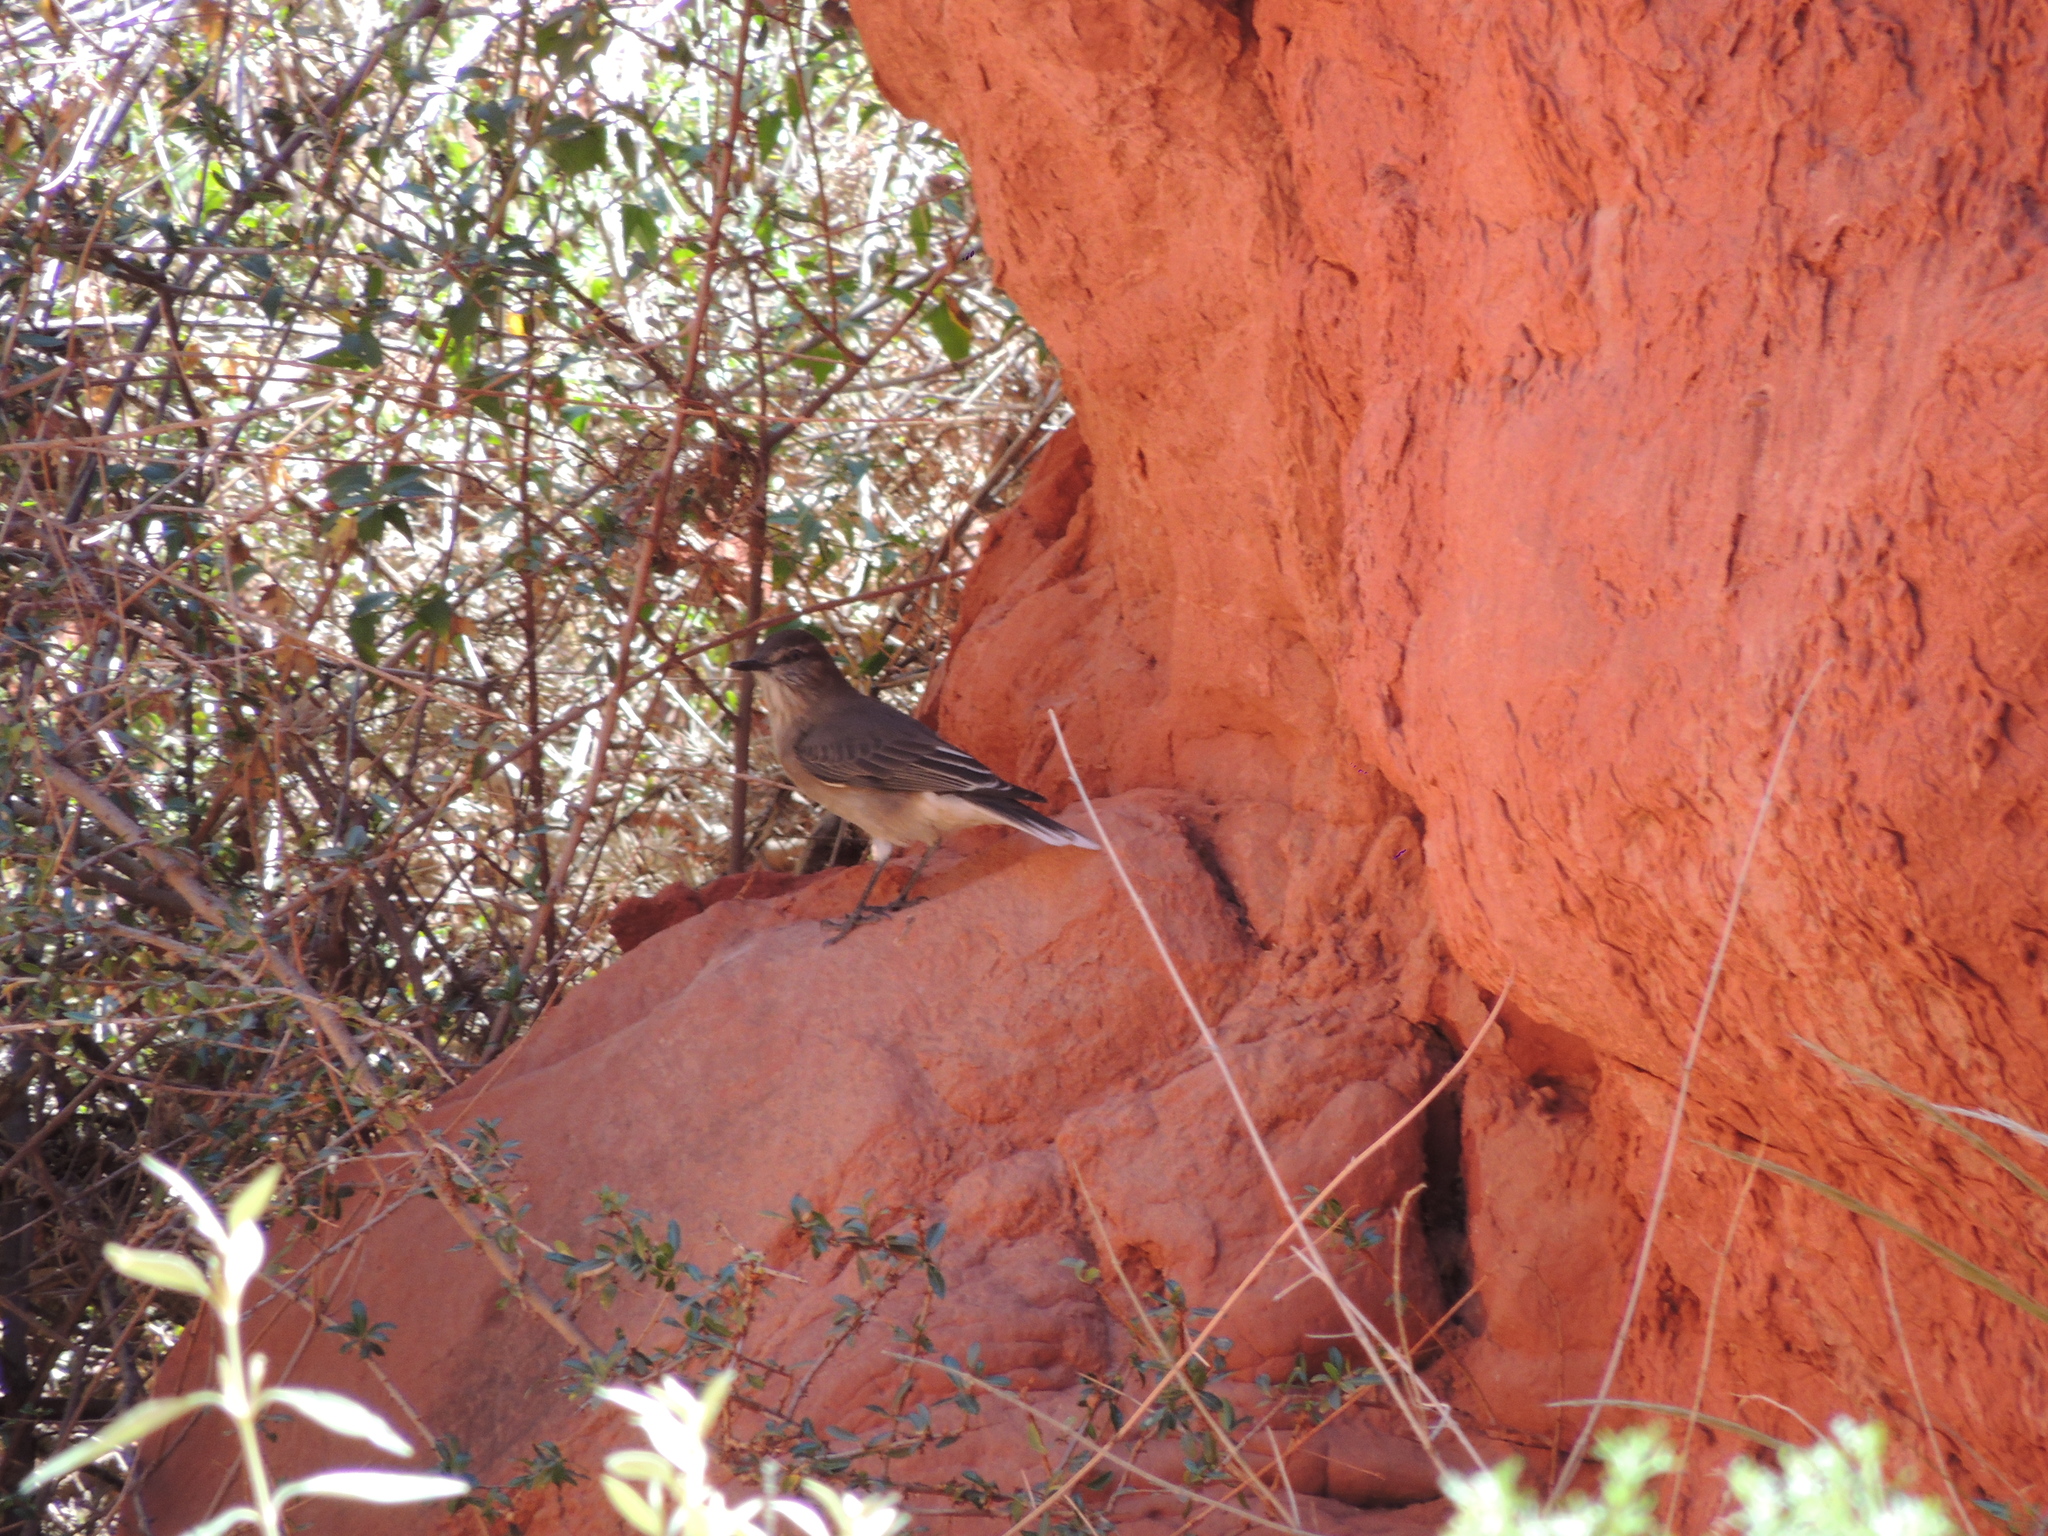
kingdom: Animalia
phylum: Chordata
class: Aves
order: Passeriformes
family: Tyrannidae
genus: Agriornis
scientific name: Agriornis montanus
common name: Black-billed shrike-tyrant
